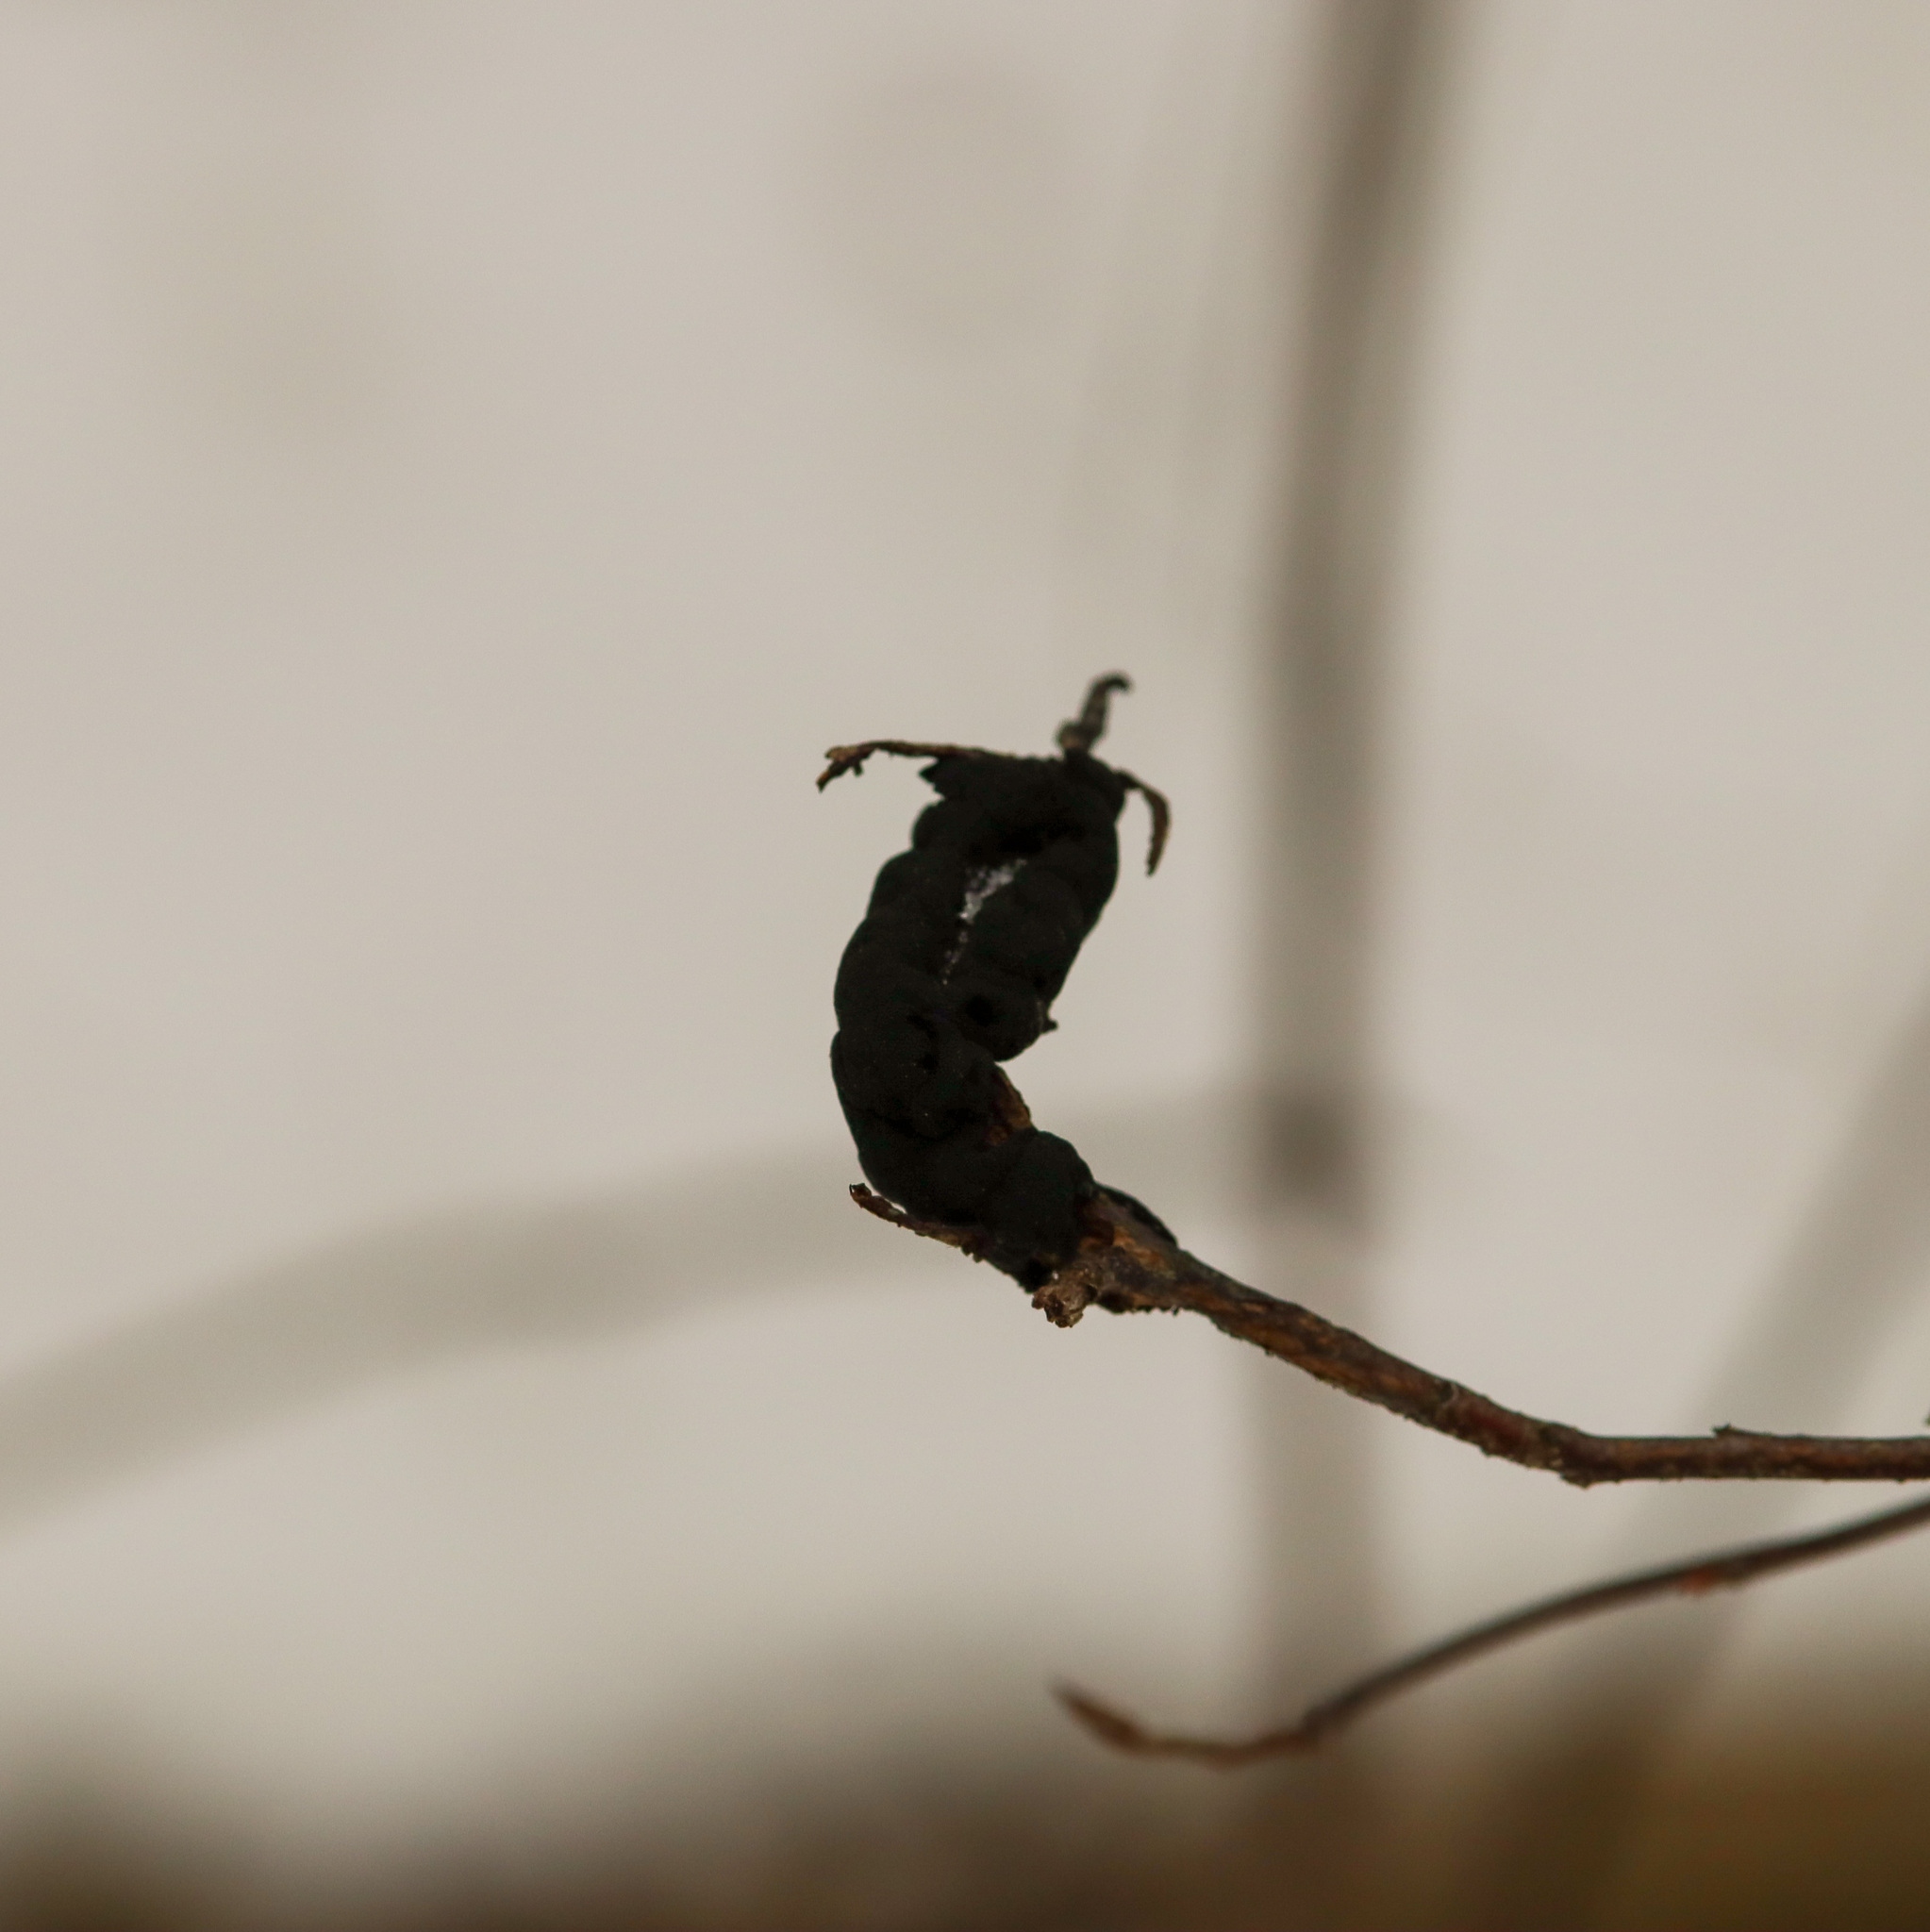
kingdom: Fungi
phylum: Ascomycota
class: Dothideomycetes
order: Venturiales
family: Venturiaceae
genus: Apiosporina
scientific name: Apiosporina morbosa
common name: Black knot
